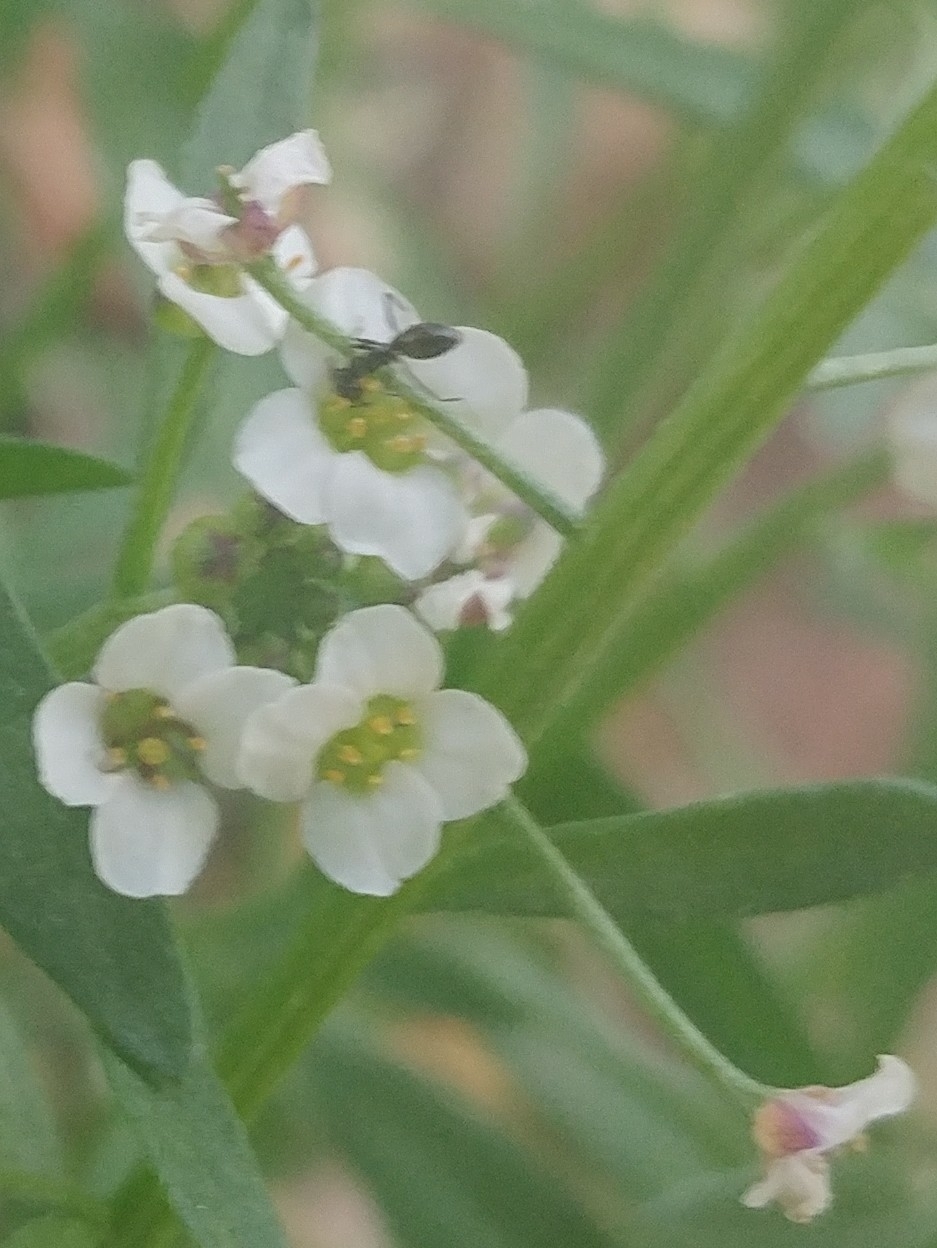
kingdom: Animalia
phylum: Arthropoda
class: Insecta
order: Hymenoptera
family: Formicidae
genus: Linepithema
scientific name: Linepithema humile
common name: Argentine ant
